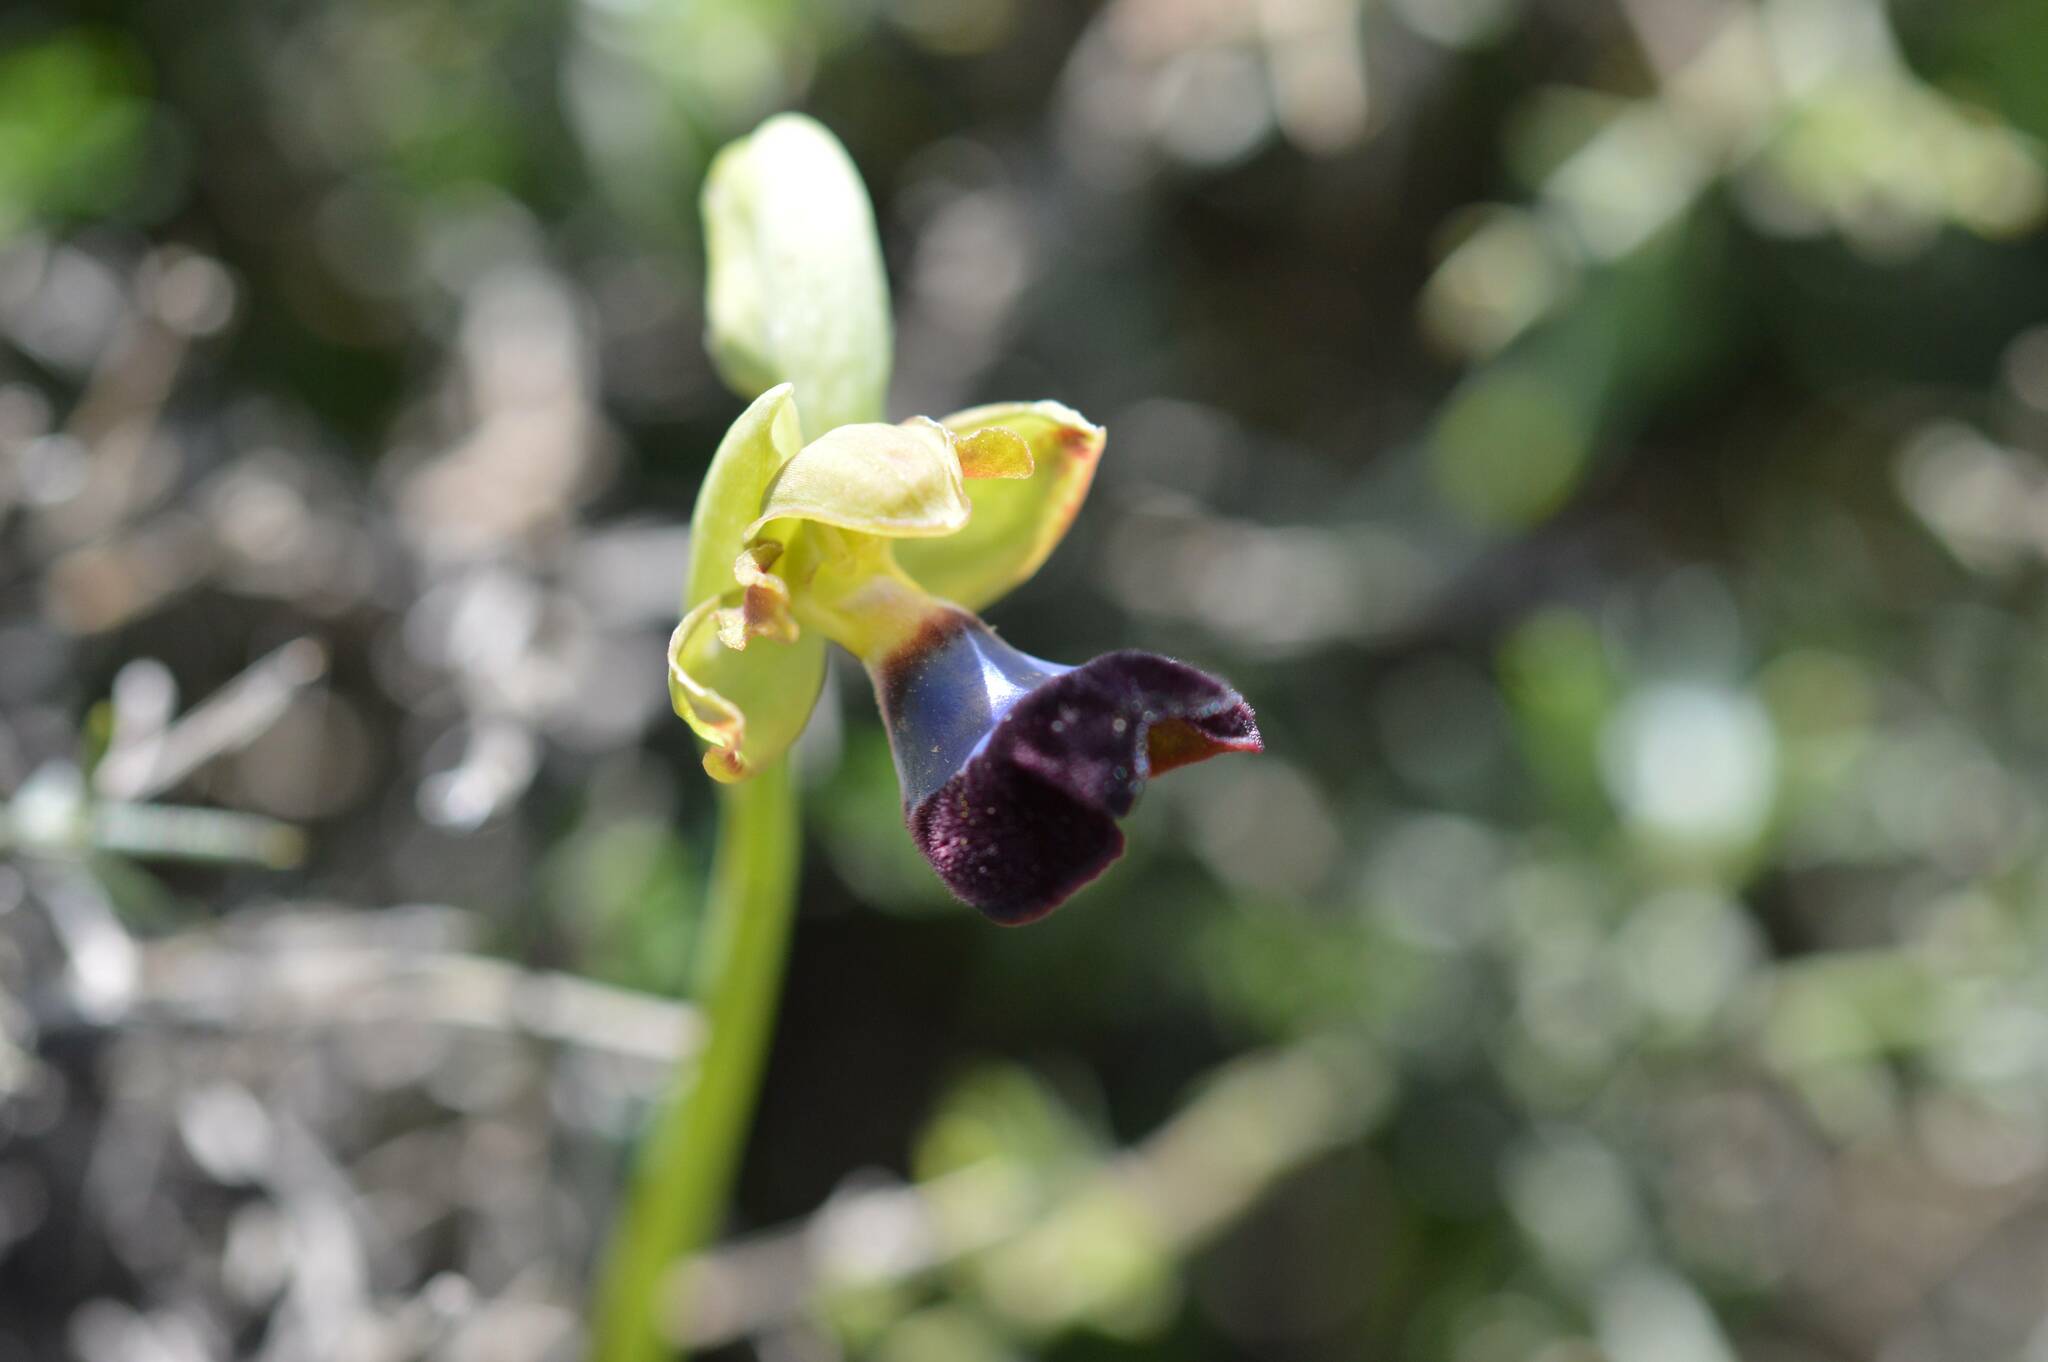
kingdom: Plantae
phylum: Tracheophyta
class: Liliopsida
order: Asparagales
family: Orchidaceae
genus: Ophrys
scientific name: Ophrys atlantica
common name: Atlantic ophrys
